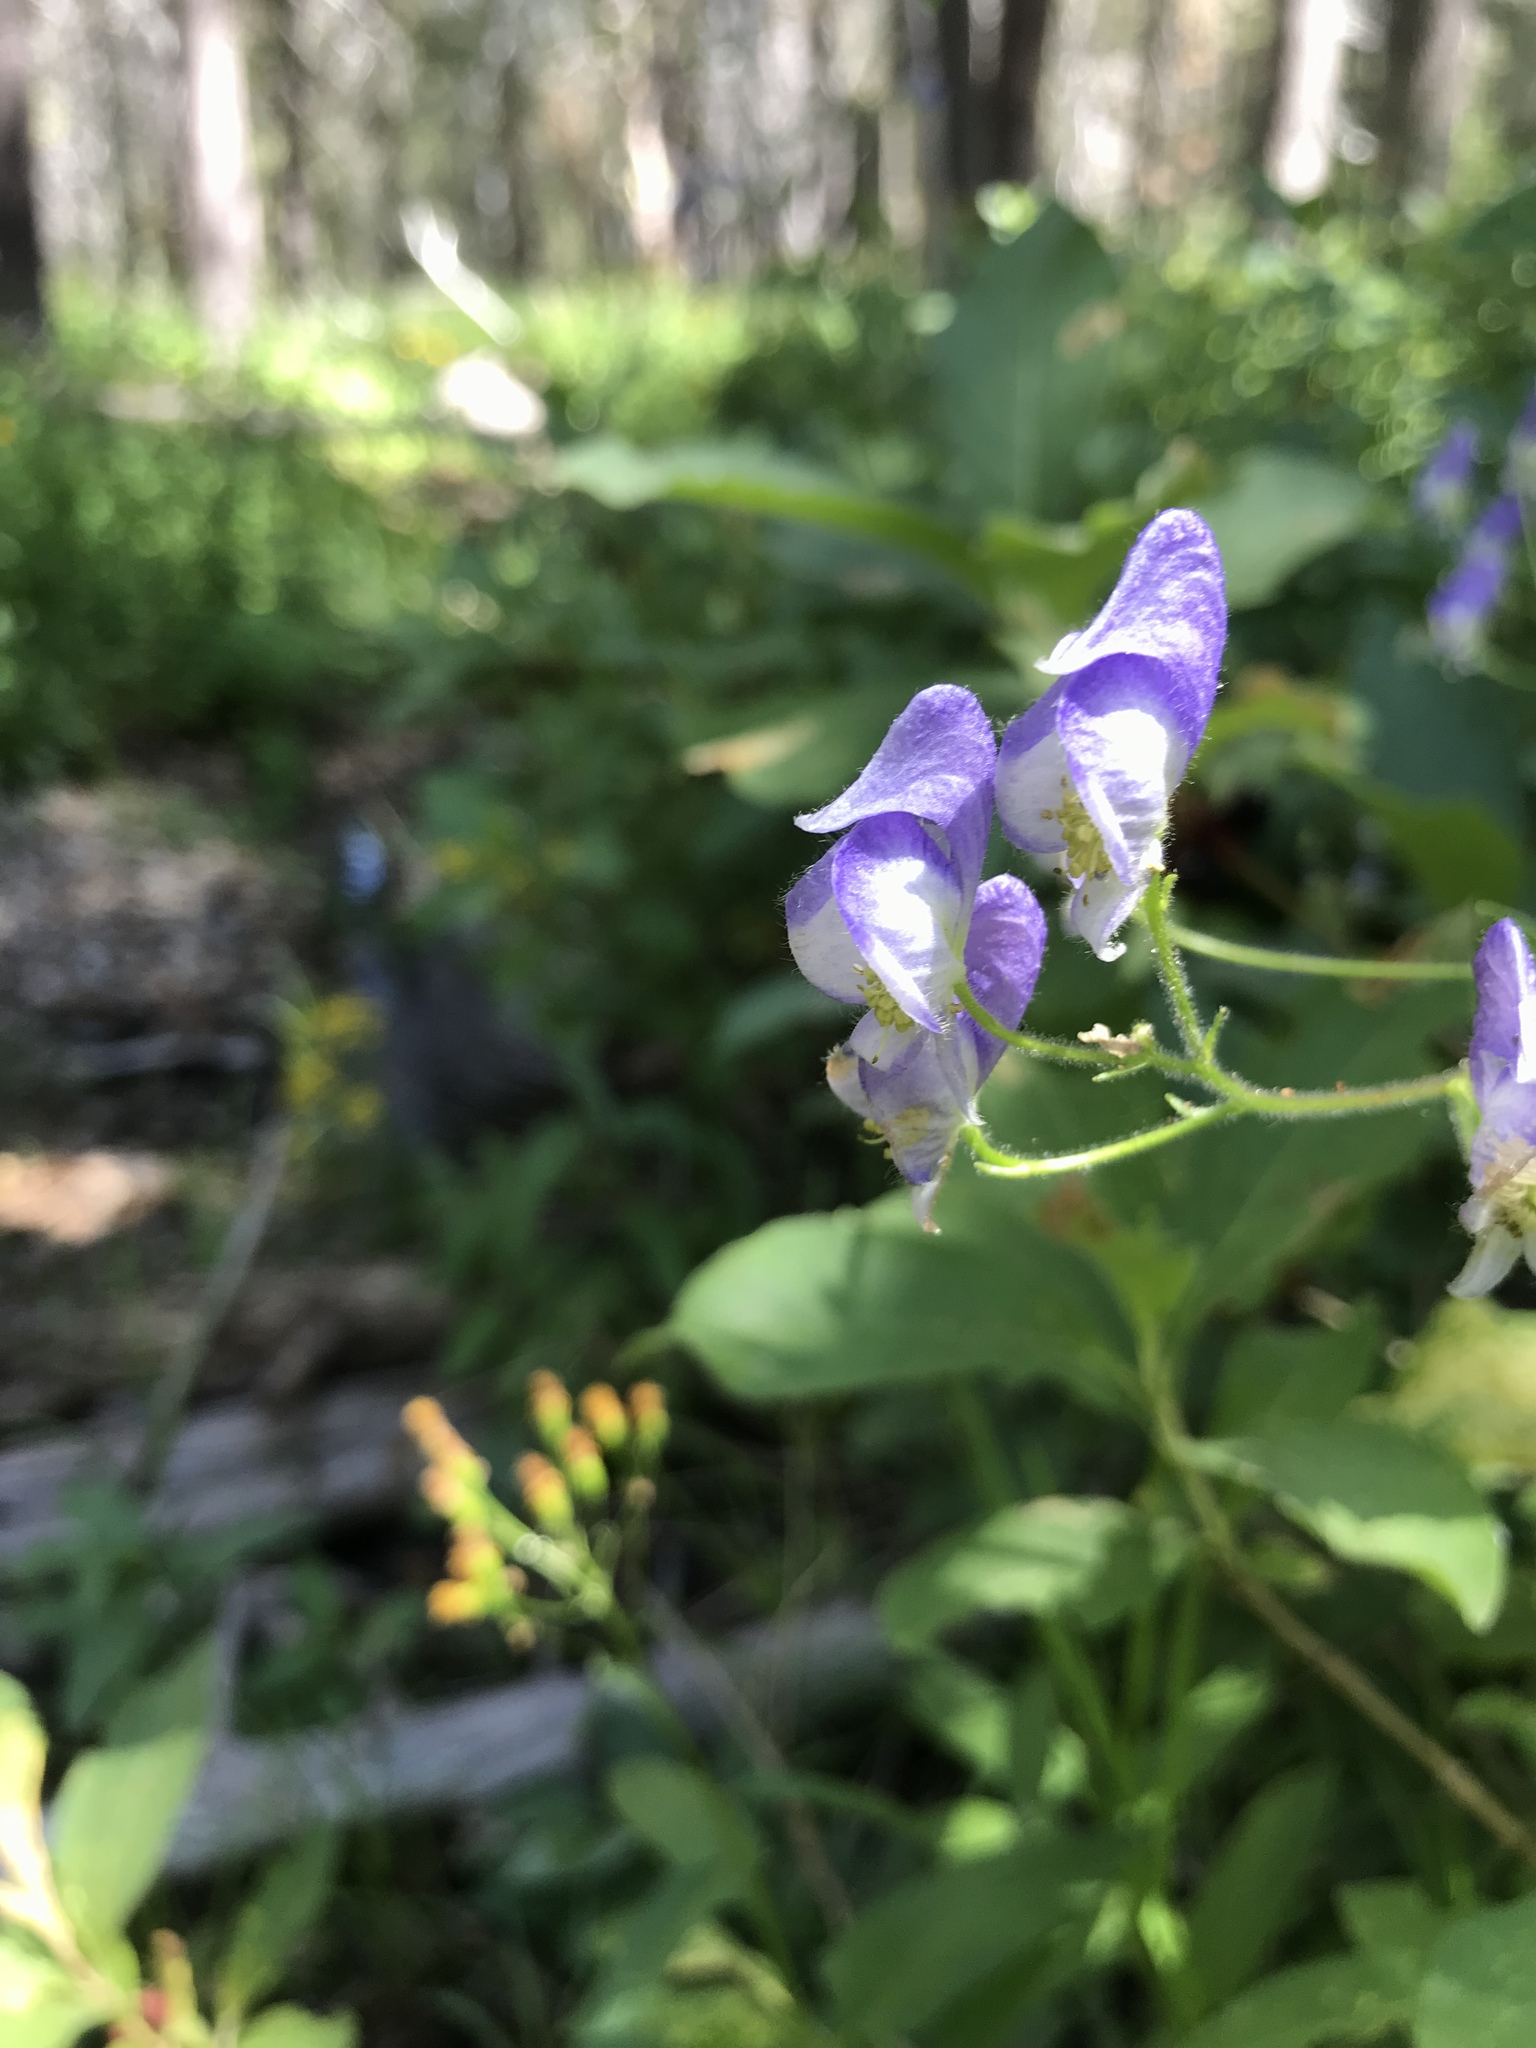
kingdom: Plantae
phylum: Tracheophyta
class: Magnoliopsida
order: Ranunculales
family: Ranunculaceae
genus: Aconitum
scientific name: Aconitum columbianum
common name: Columbia aconite
